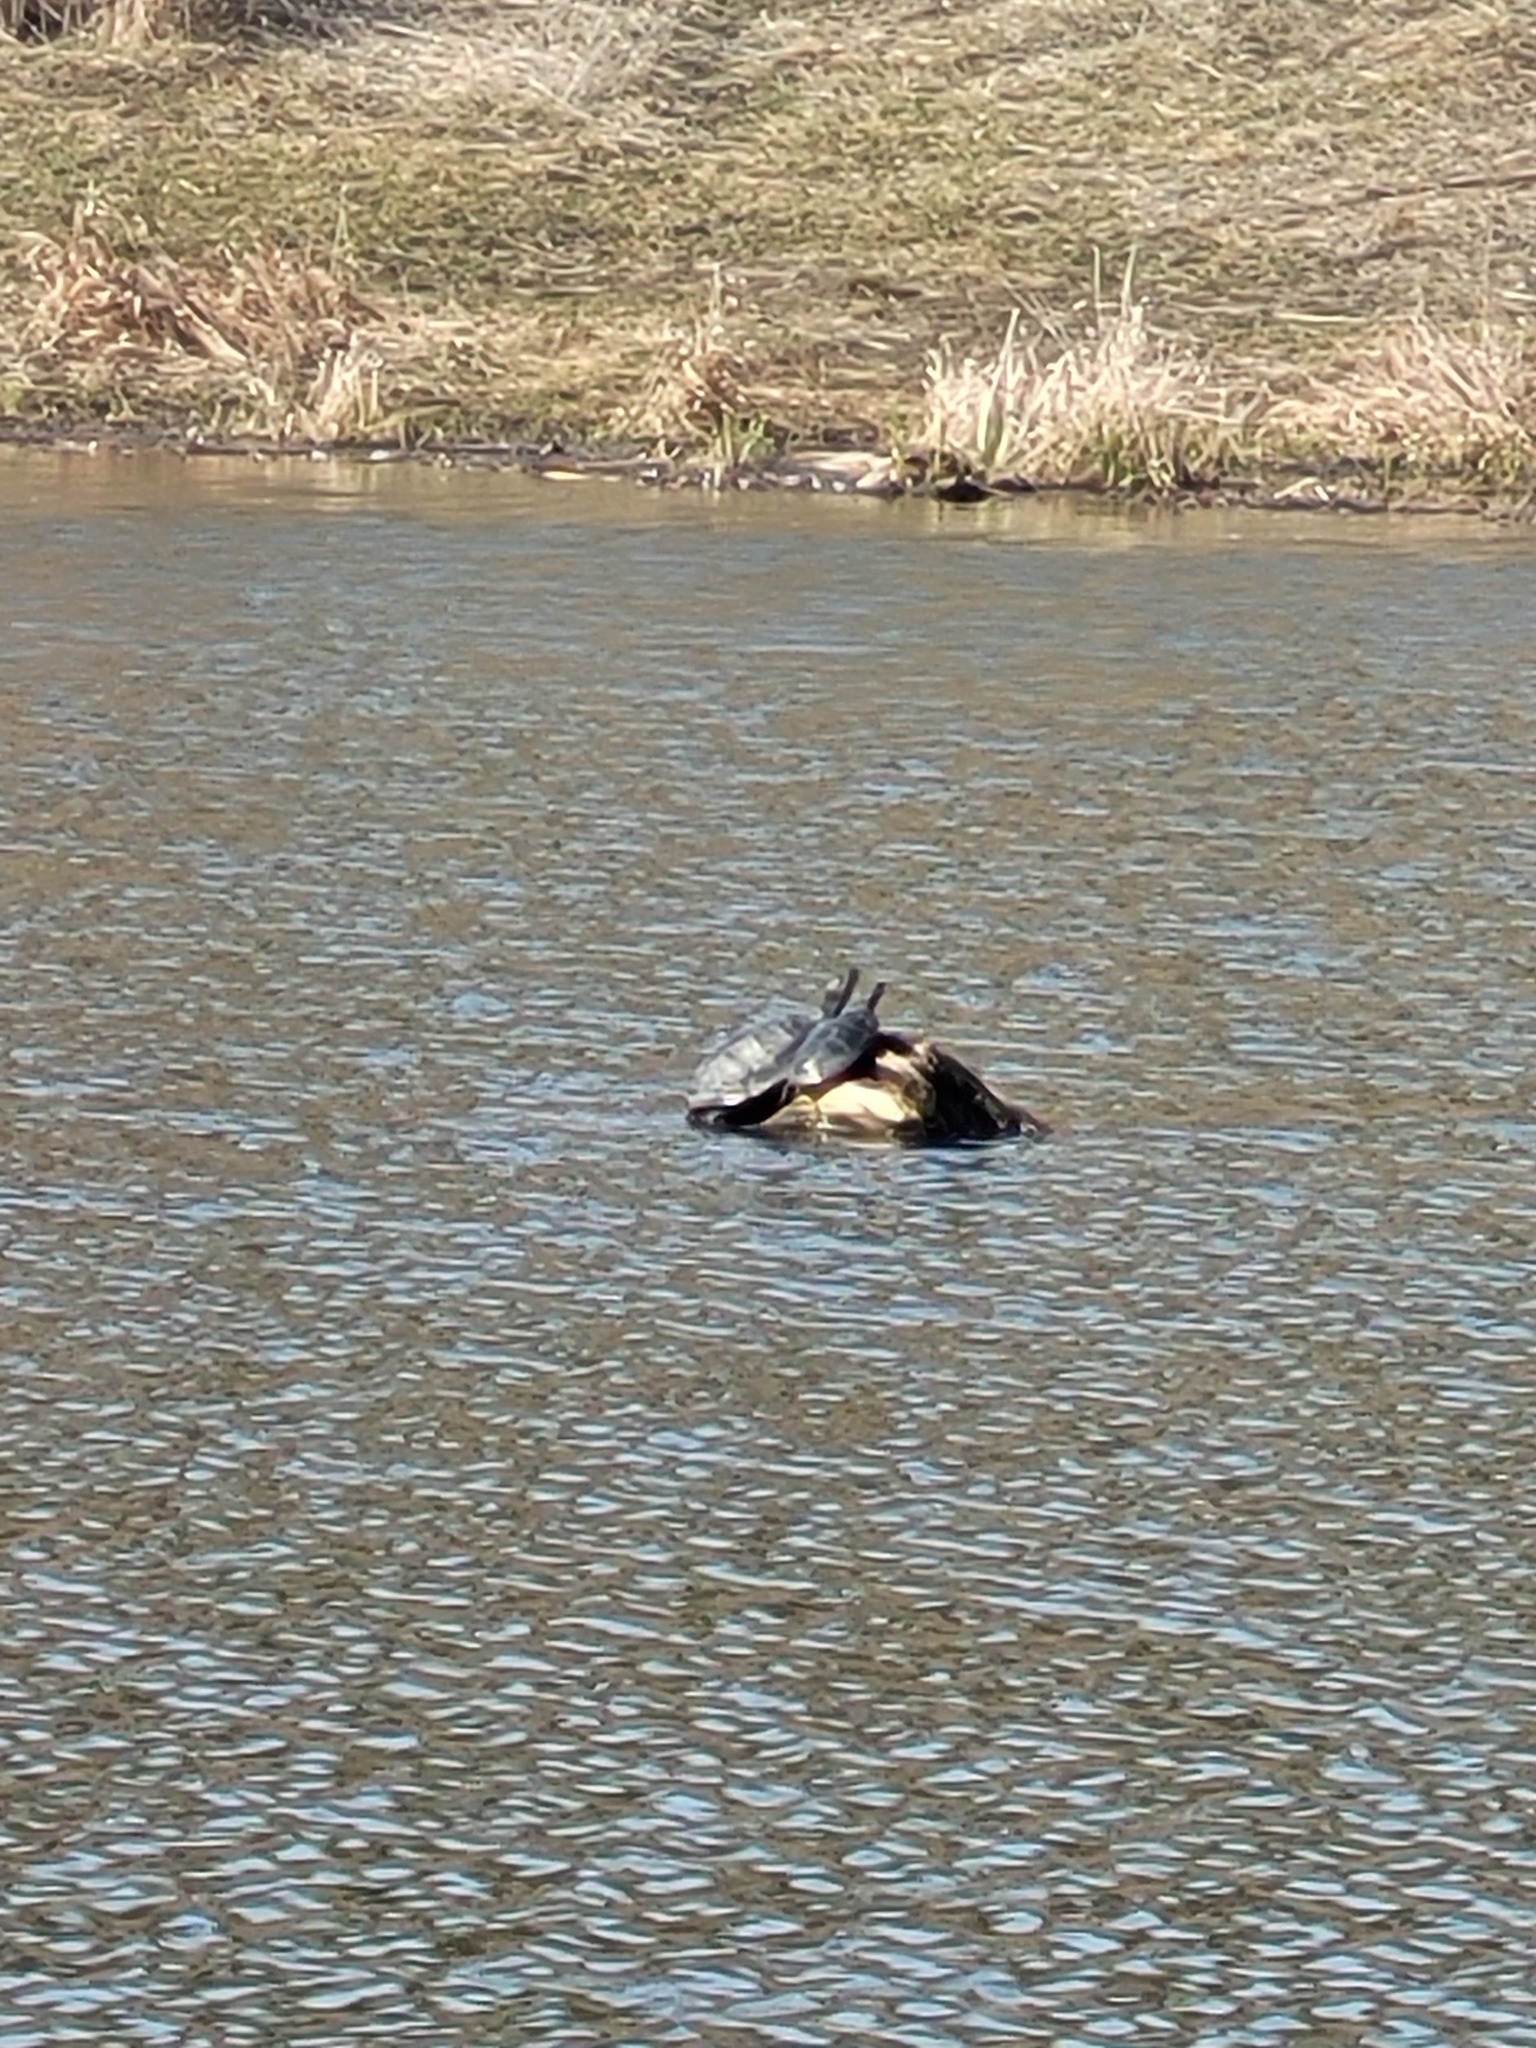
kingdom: Animalia
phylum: Chordata
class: Testudines
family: Emydidae
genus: Chrysemys
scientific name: Chrysemys picta
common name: Painted turtle
